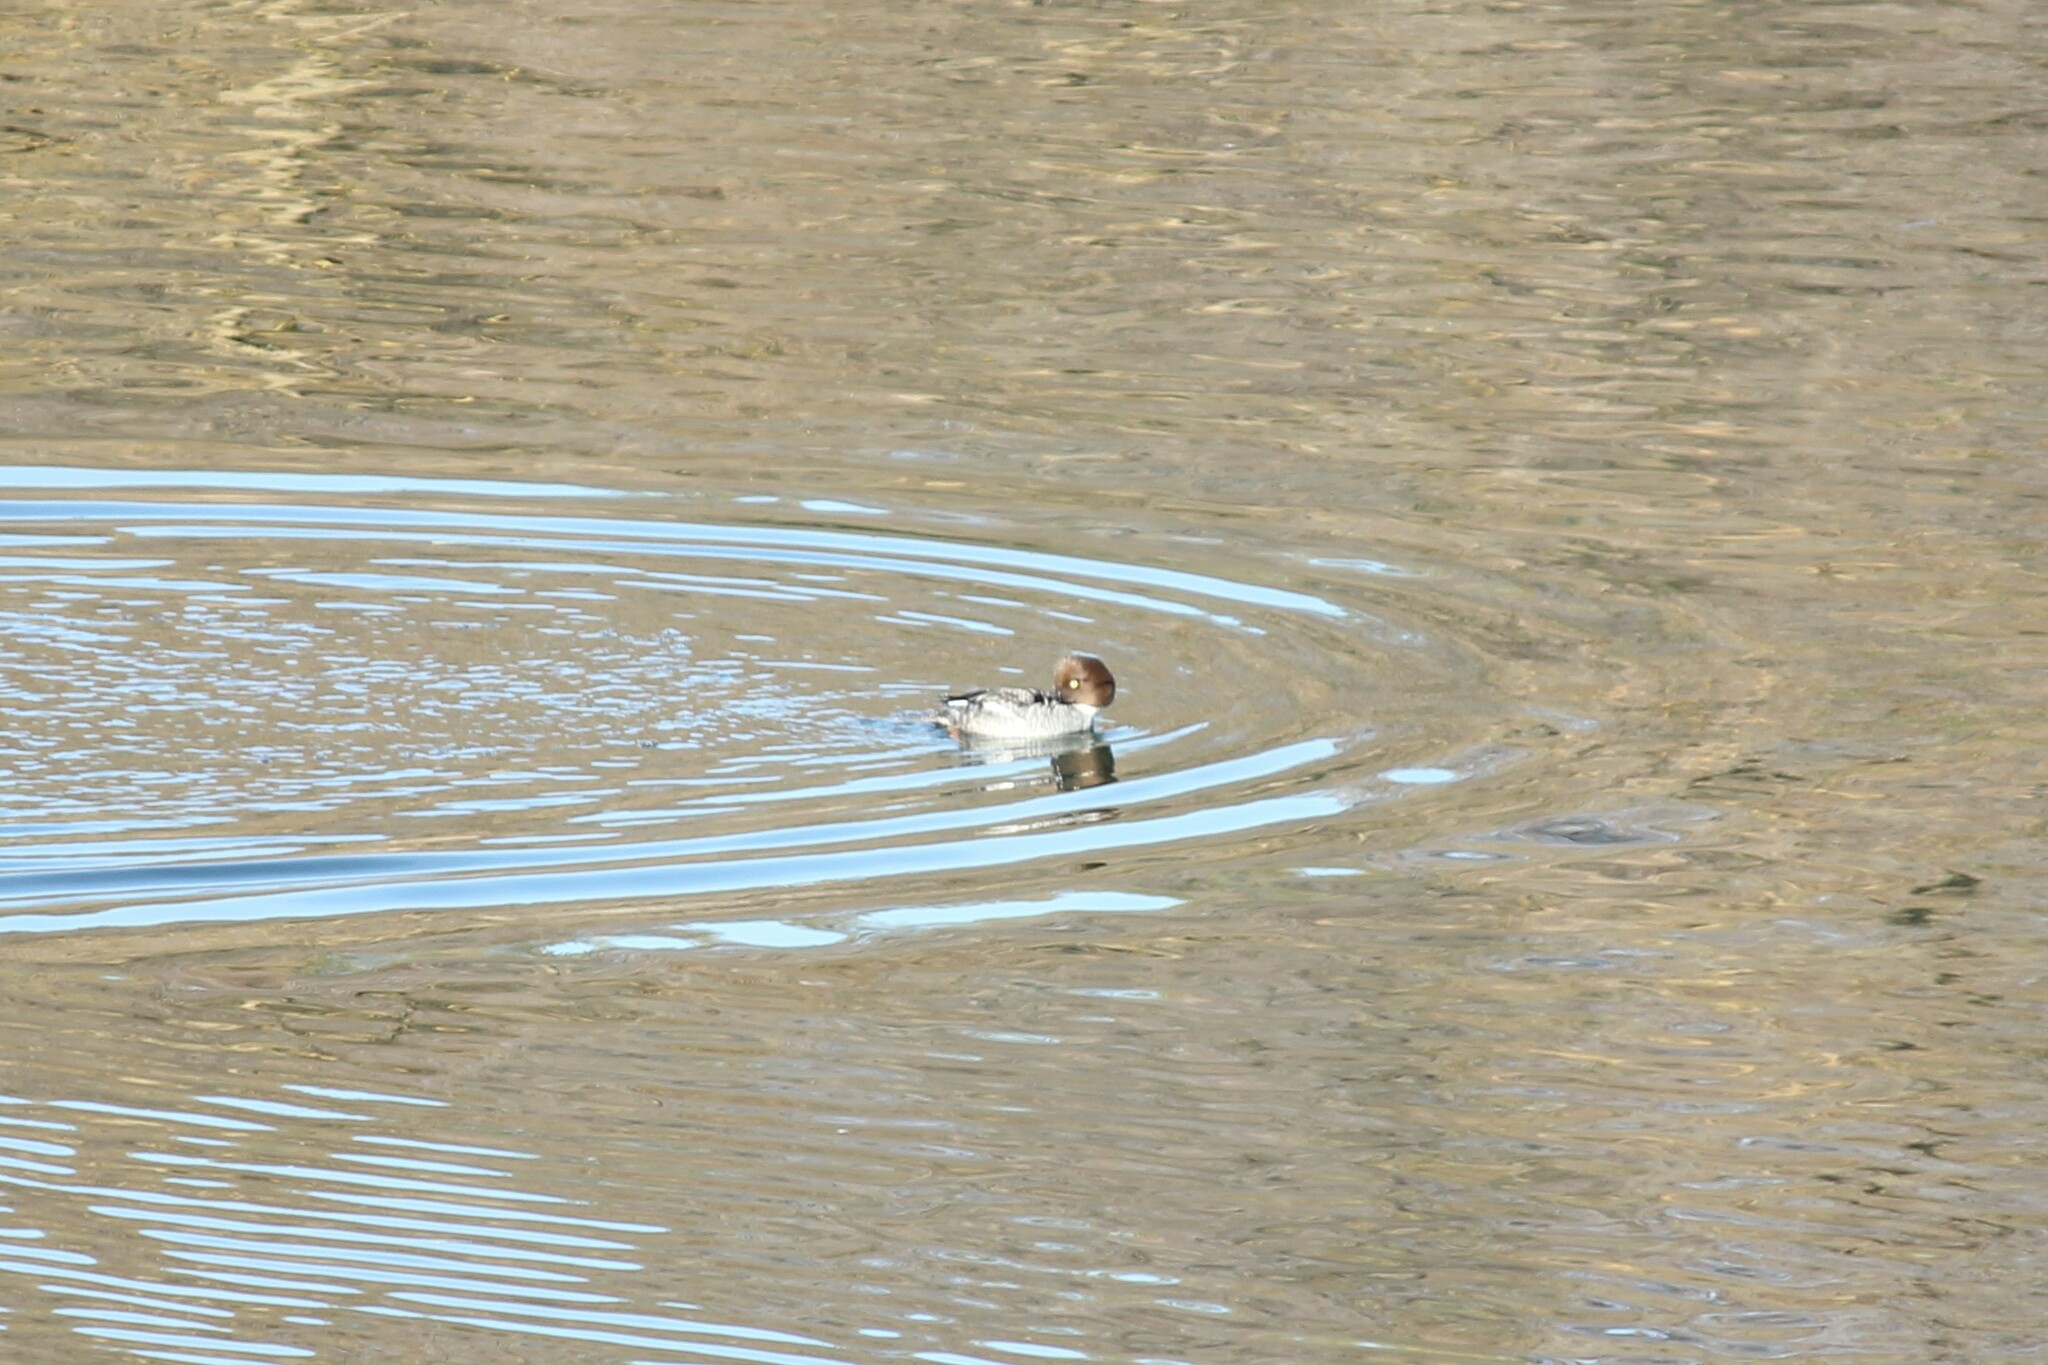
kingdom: Animalia
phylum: Chordata
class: Aves
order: Anseriformes
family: Anatidae
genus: Bucephala
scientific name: Bucephala clangula
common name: Common goldeneye
